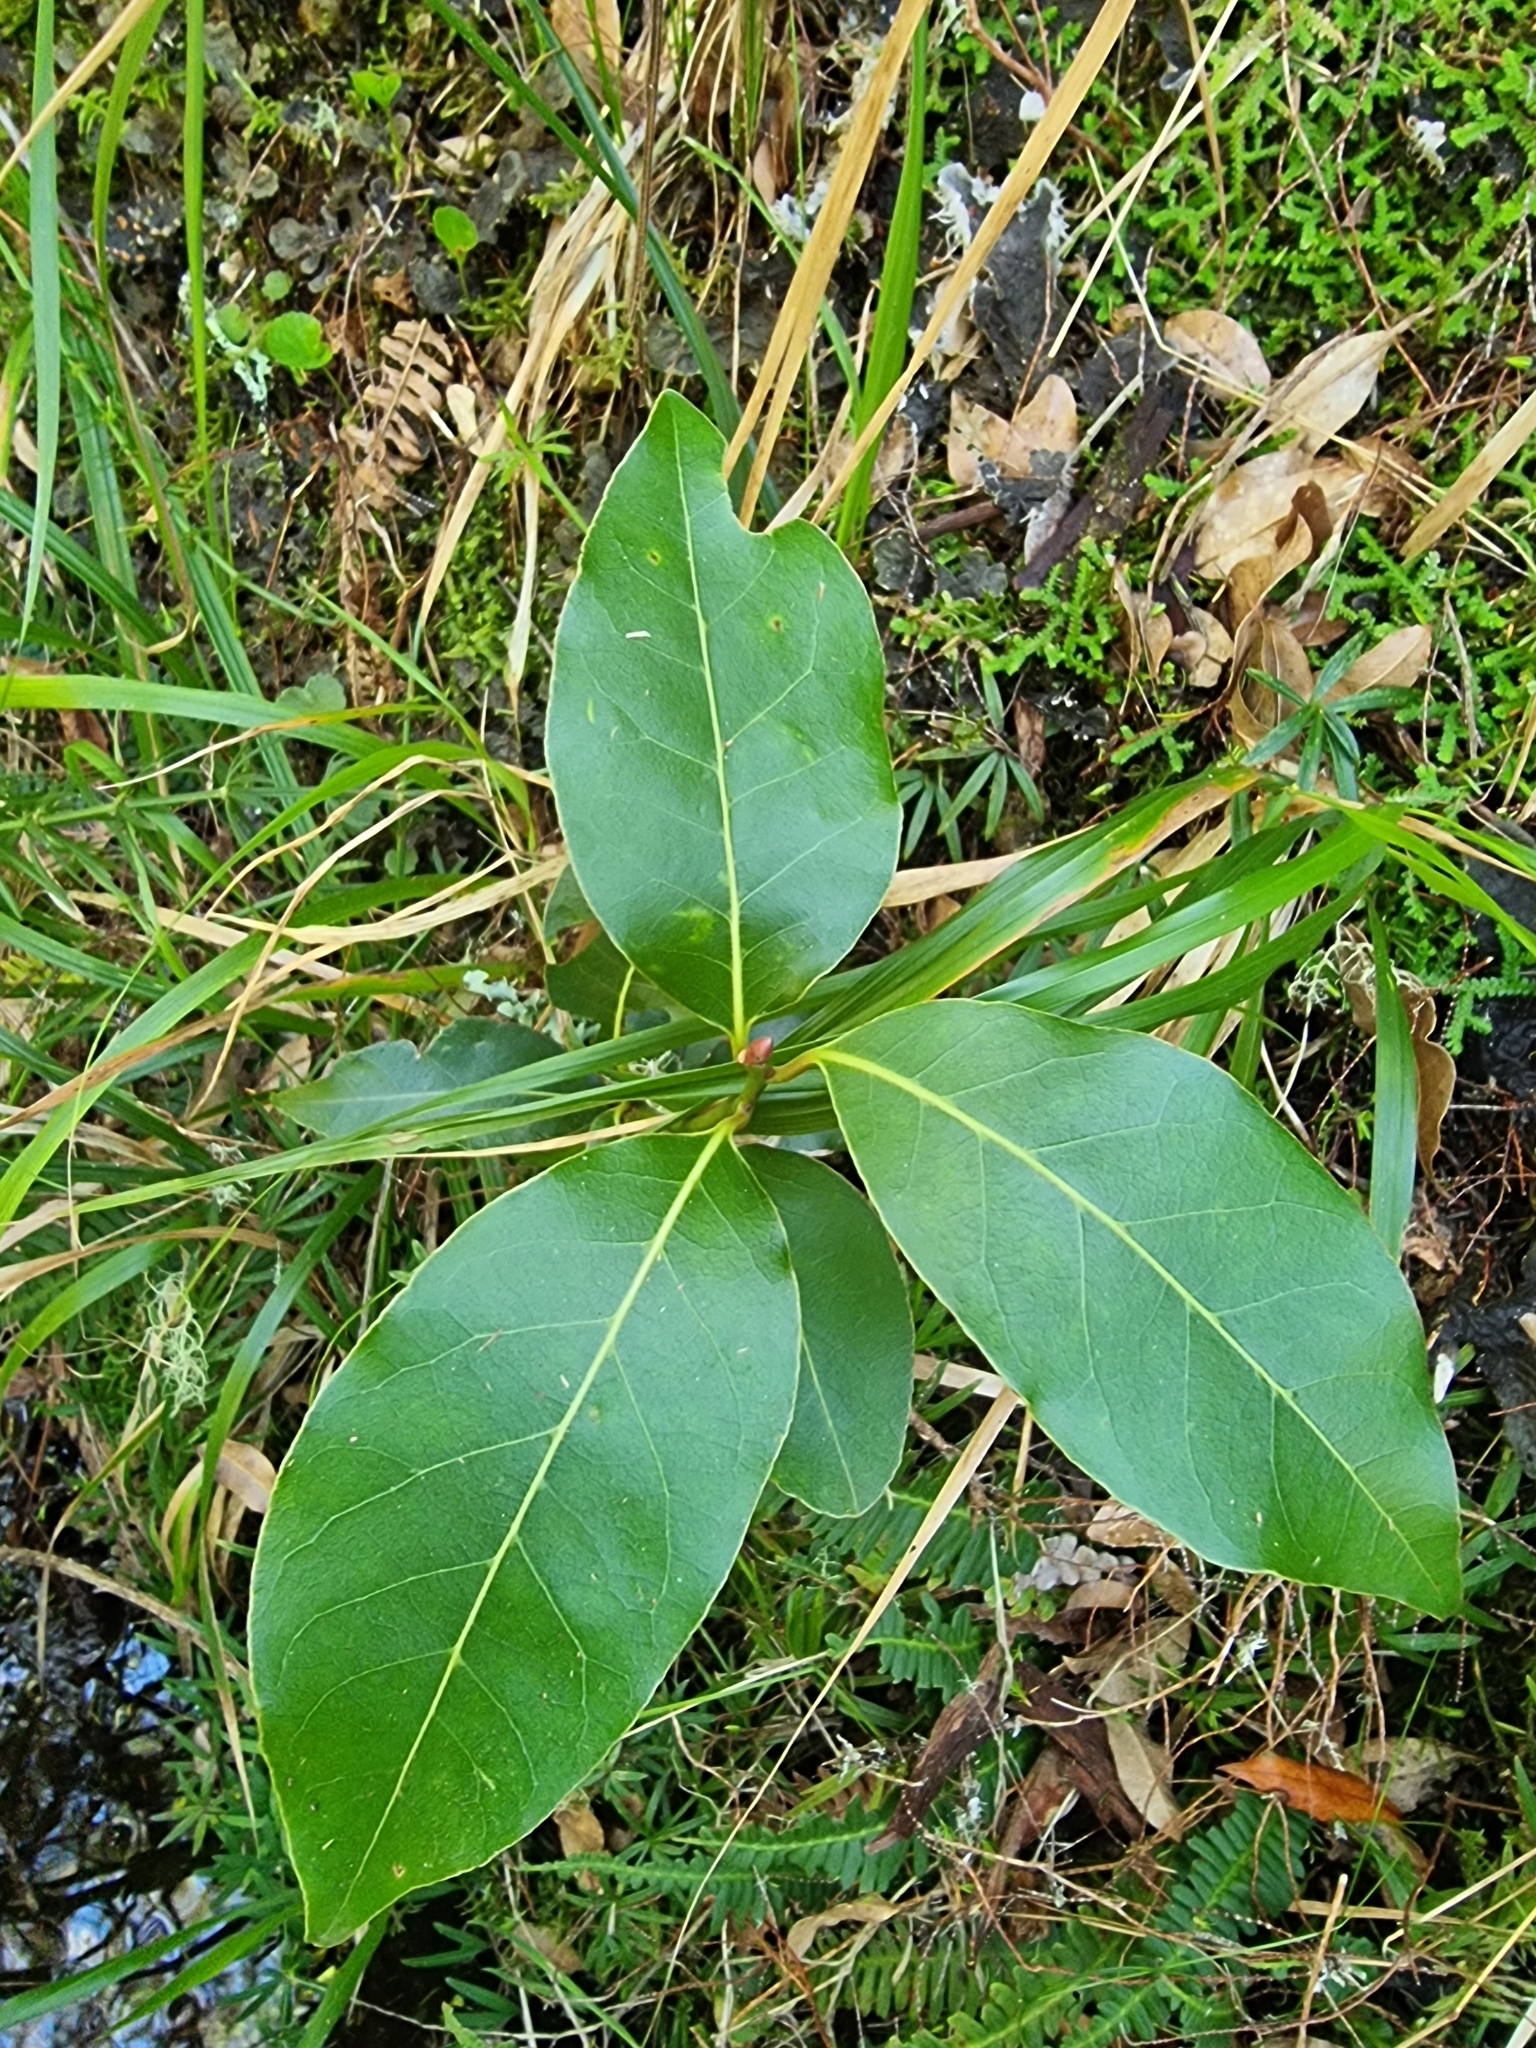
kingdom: Plantae
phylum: Tracheophyta
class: Magnoliopsida
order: Laurales
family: Lauraceae
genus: Laurus
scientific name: Laurus novocanariensis
